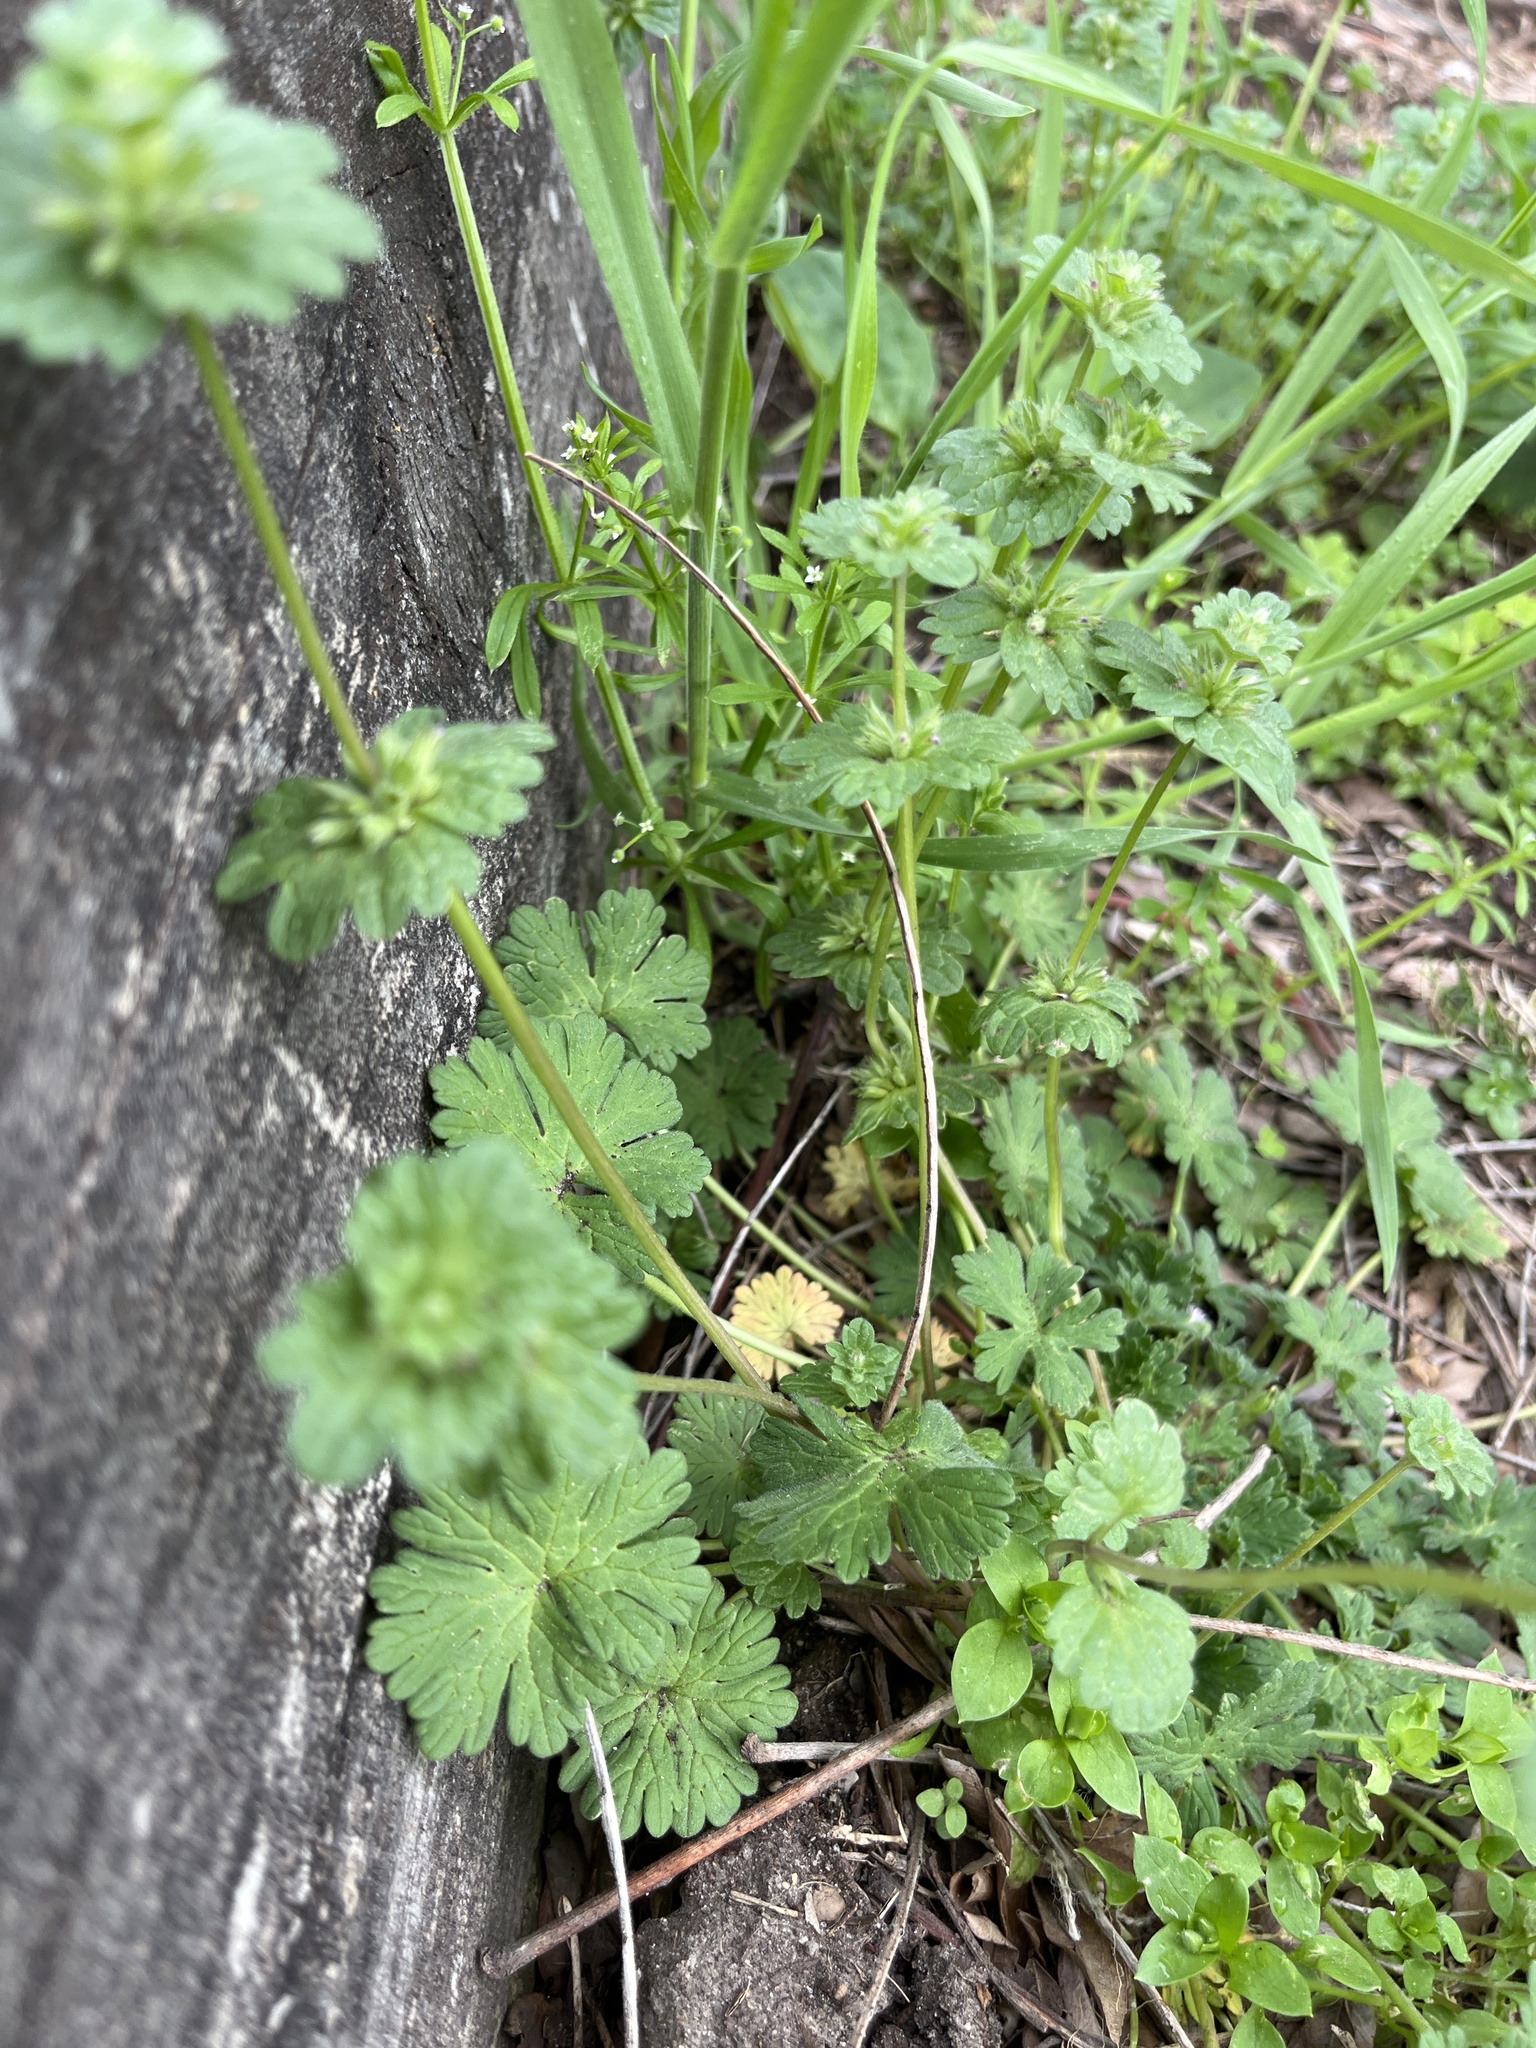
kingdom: Plantae
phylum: Tracheophyta
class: Magnoliopsida
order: Lamiales
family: Lamiaceae
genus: Lamium
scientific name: Lamium amplexicaule
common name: Henbit dead-nettle
